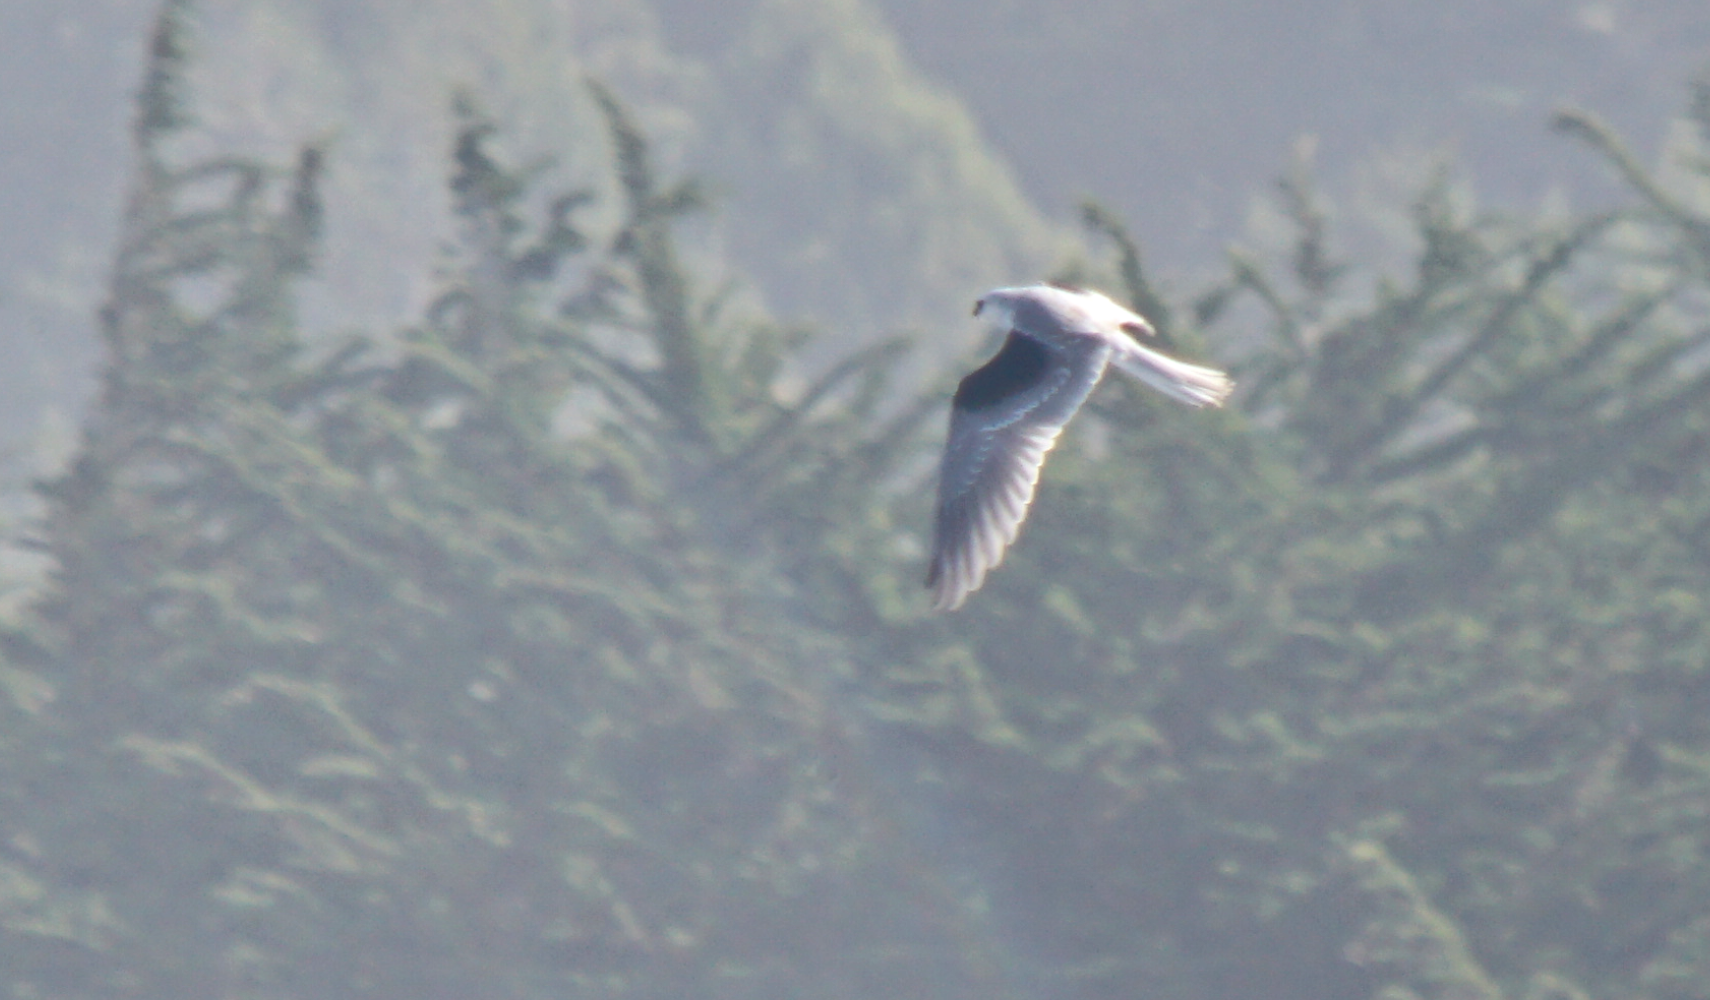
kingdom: Animalia
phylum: Chordata
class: Aves
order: Accipitriformes
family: Accipitridae
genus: Elanus
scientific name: Elanus leucurus
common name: White-tailed kite
